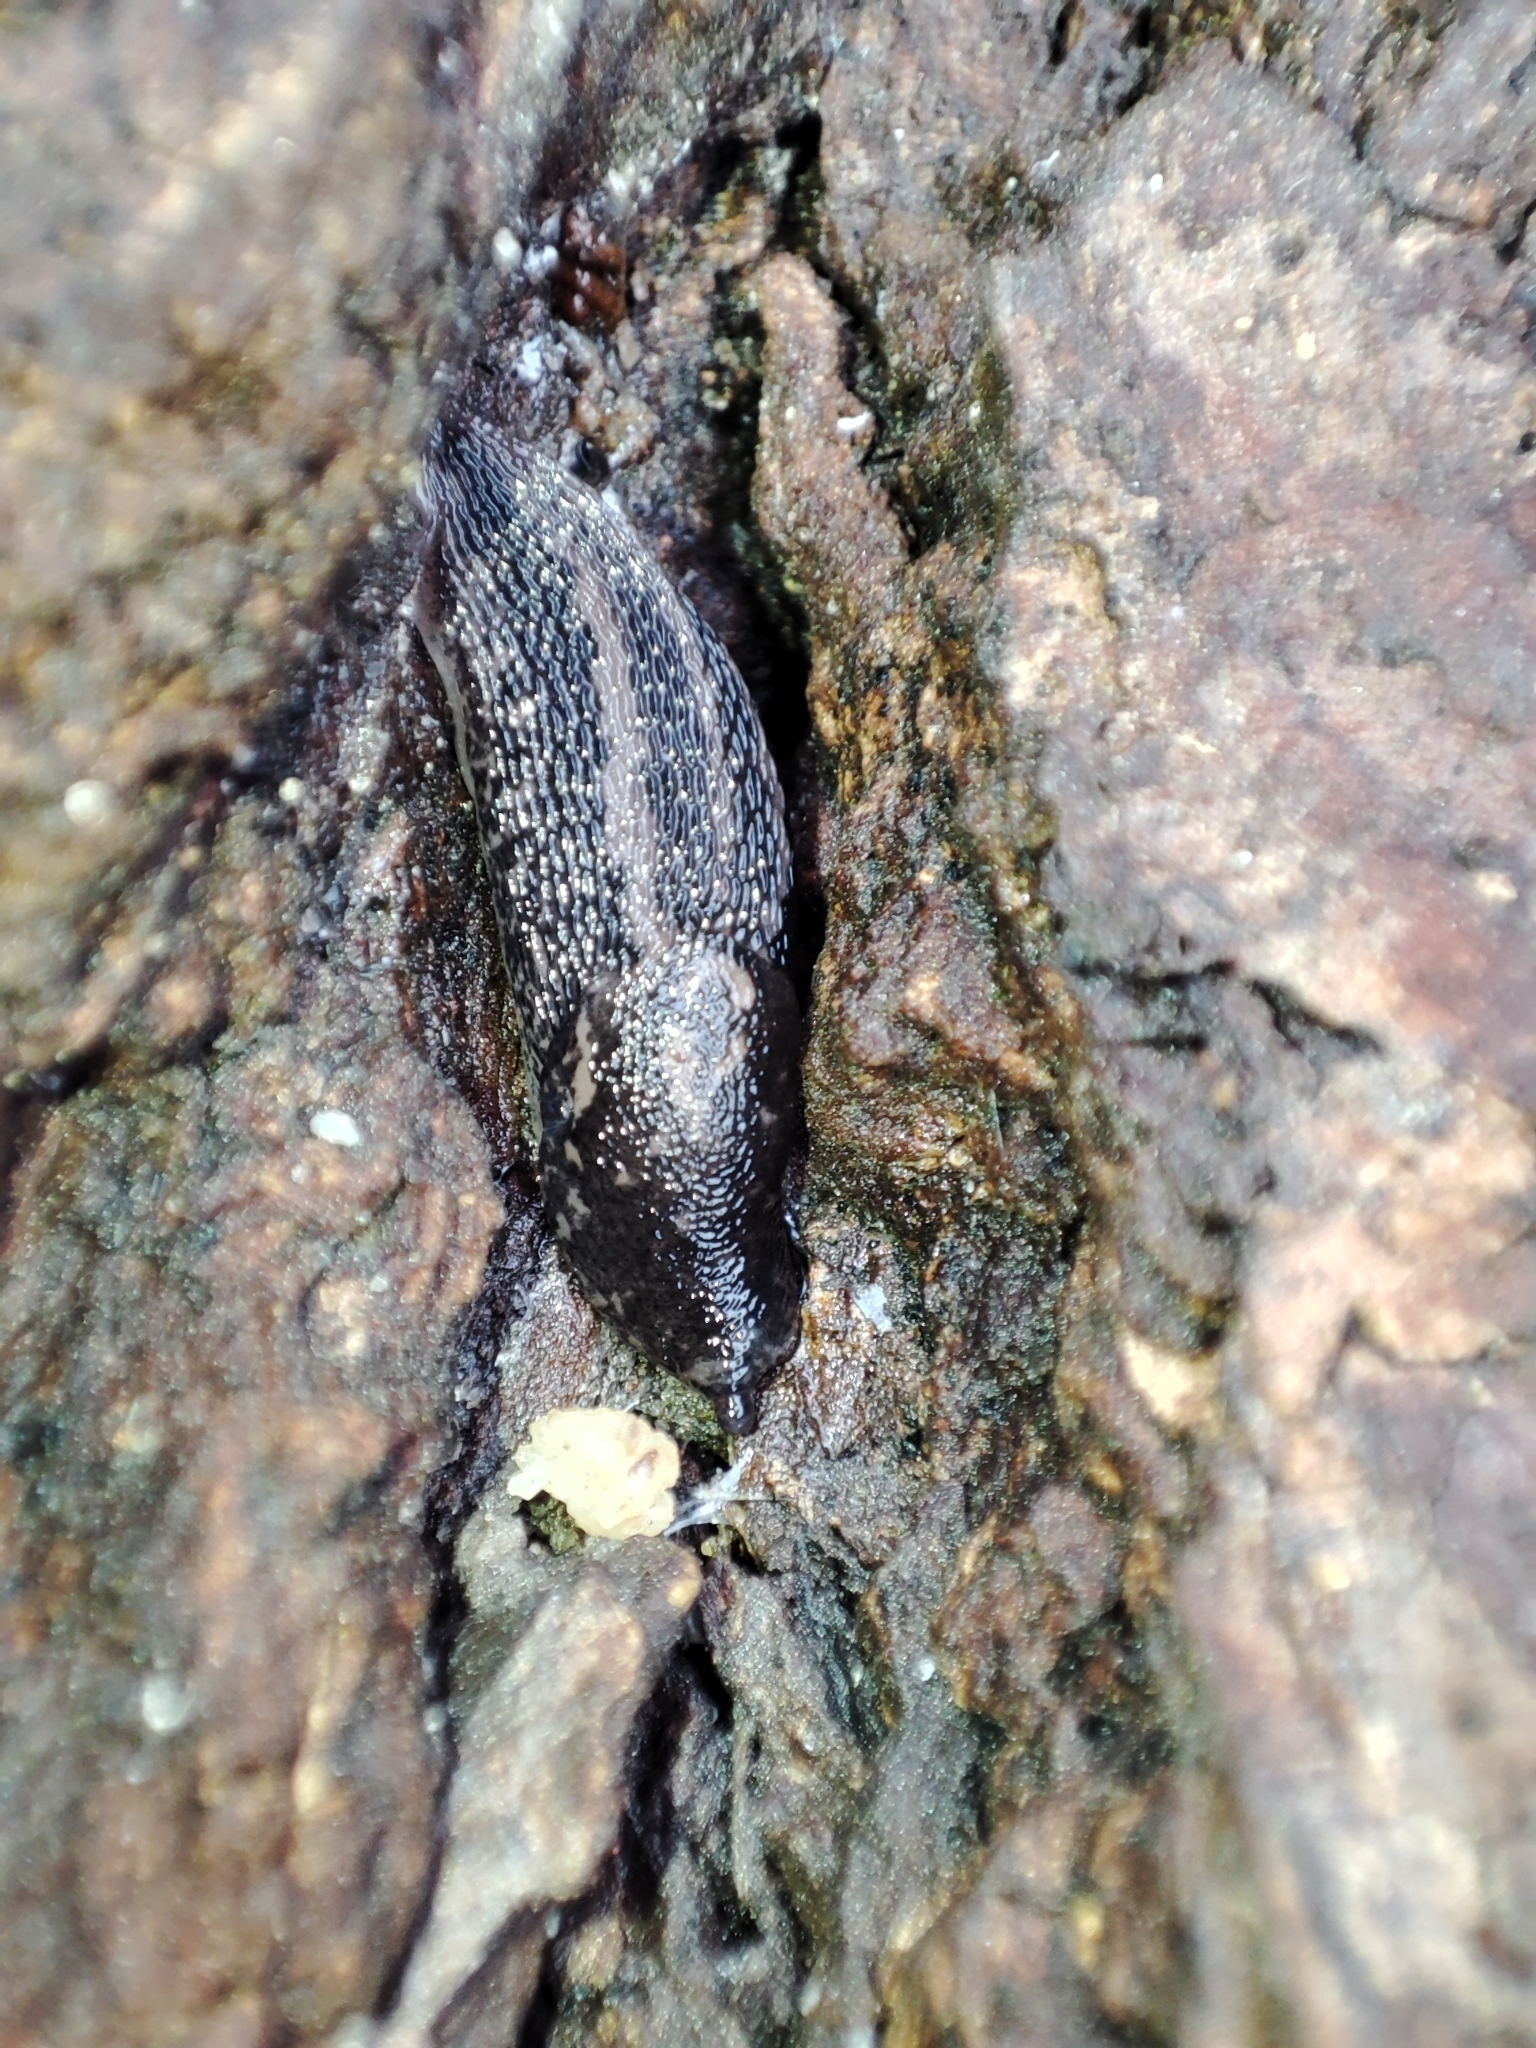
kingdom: Animalia
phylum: Mollusca
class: Gastropoda
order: Stylommatophora
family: Limacidae
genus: Limax
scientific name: Limax maximus
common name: Great grey slug
